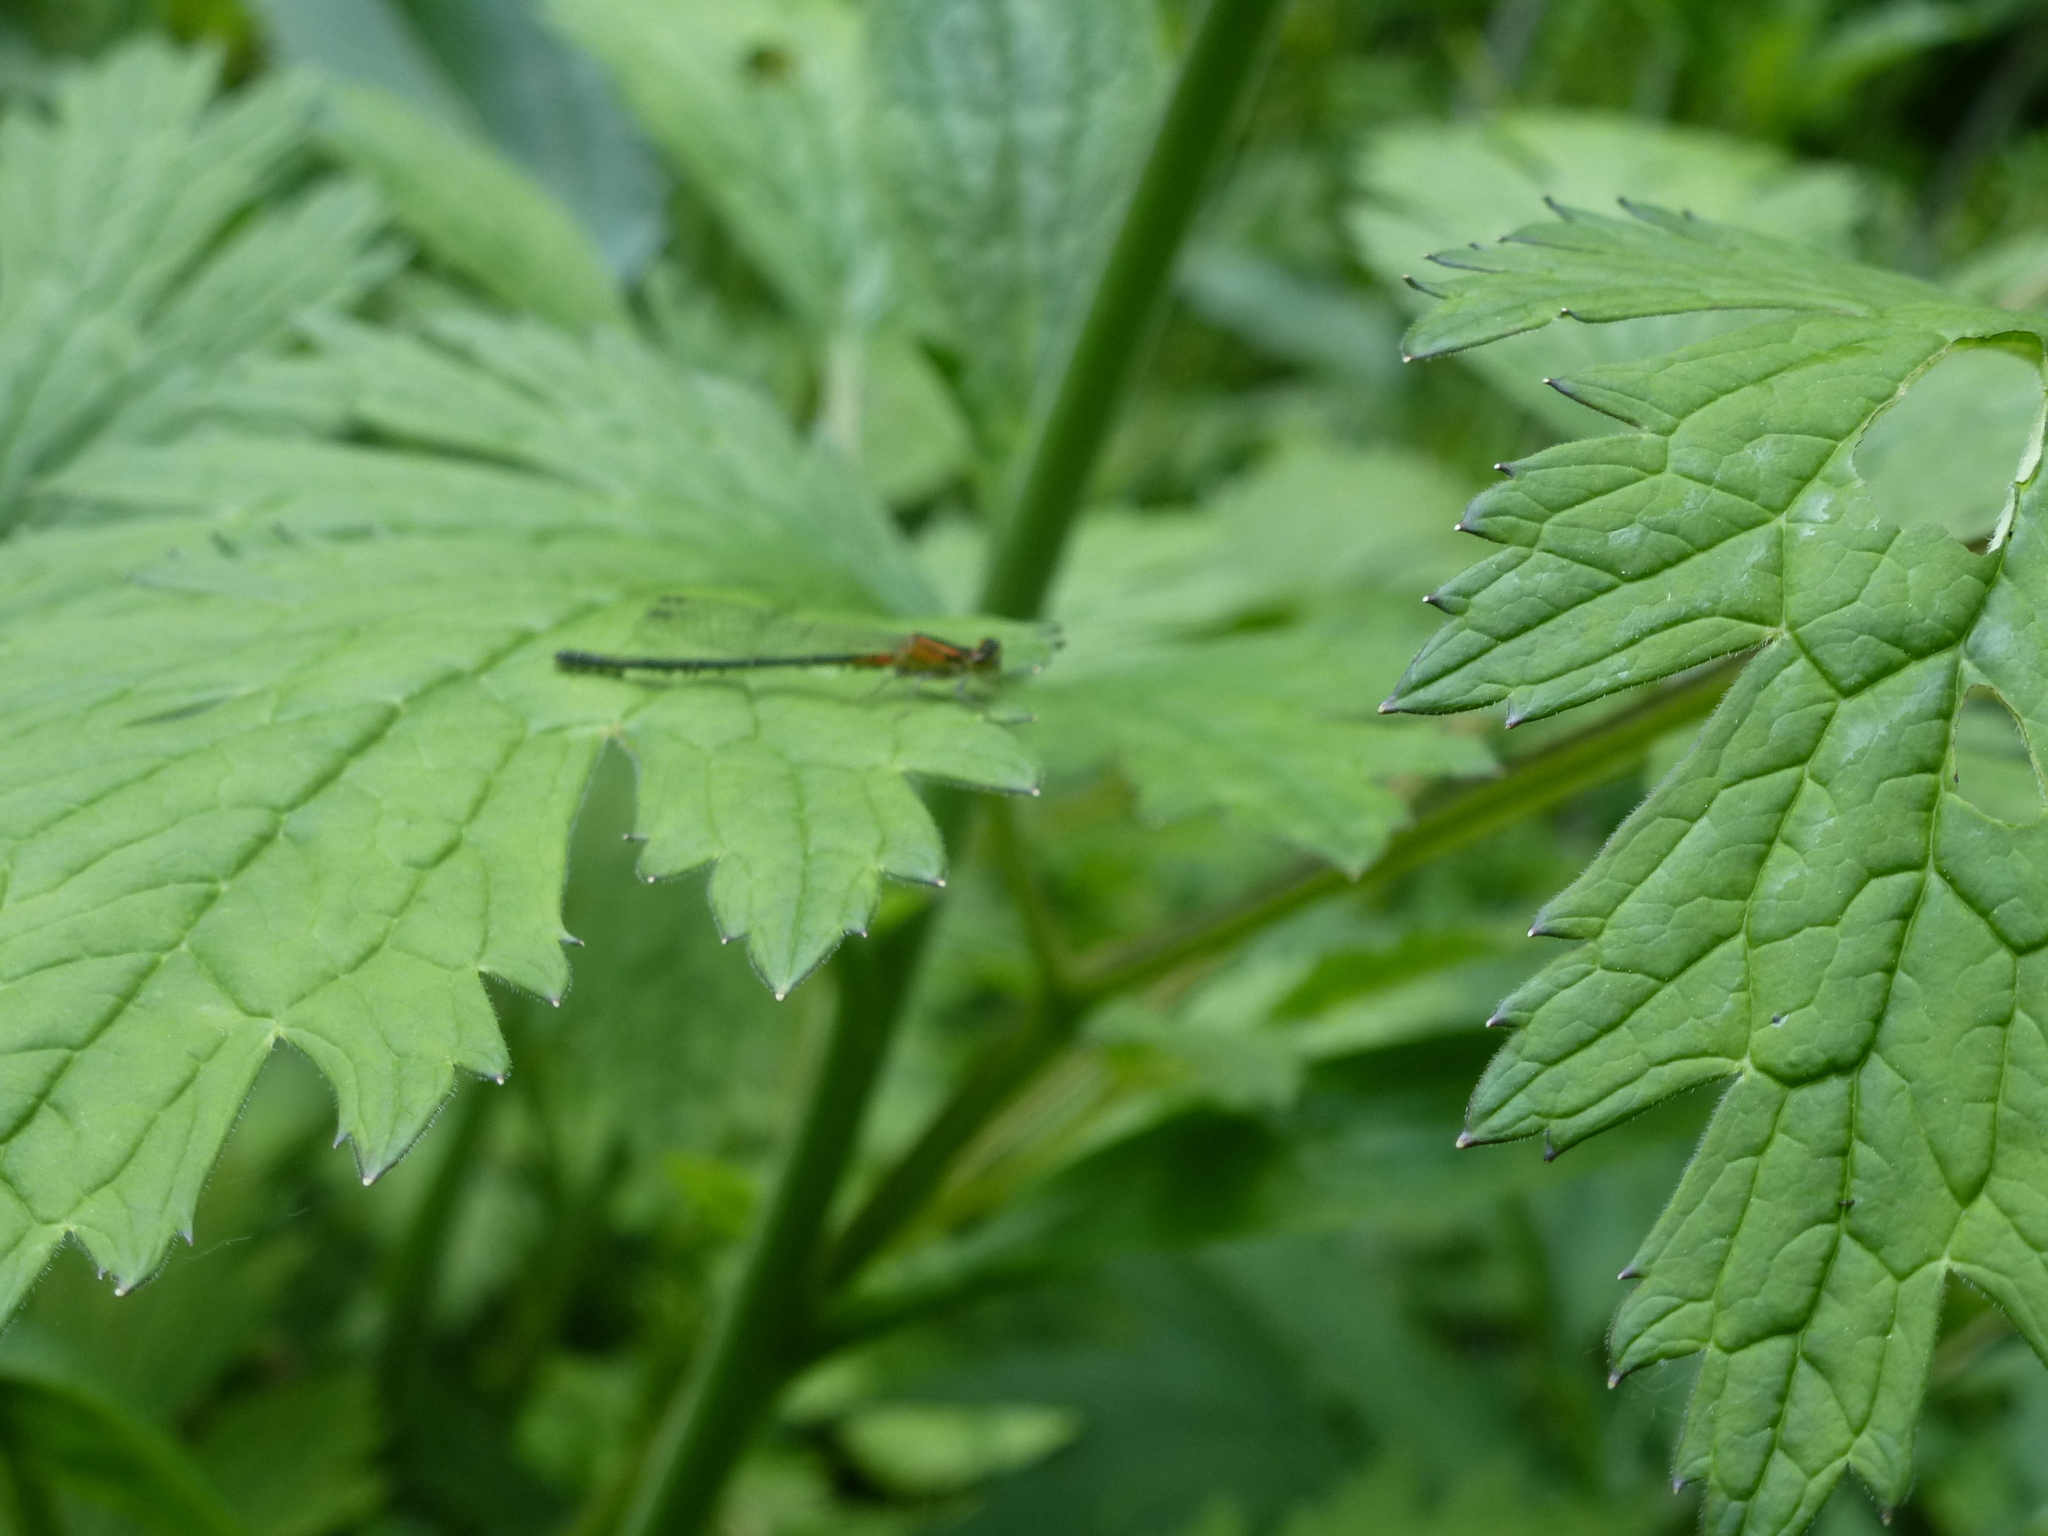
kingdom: Animalia
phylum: Arthropoda
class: Insecta
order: Odonata
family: Coenagrionidae
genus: Ischnura
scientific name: Ischnura verticalis
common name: Eastern forktail
